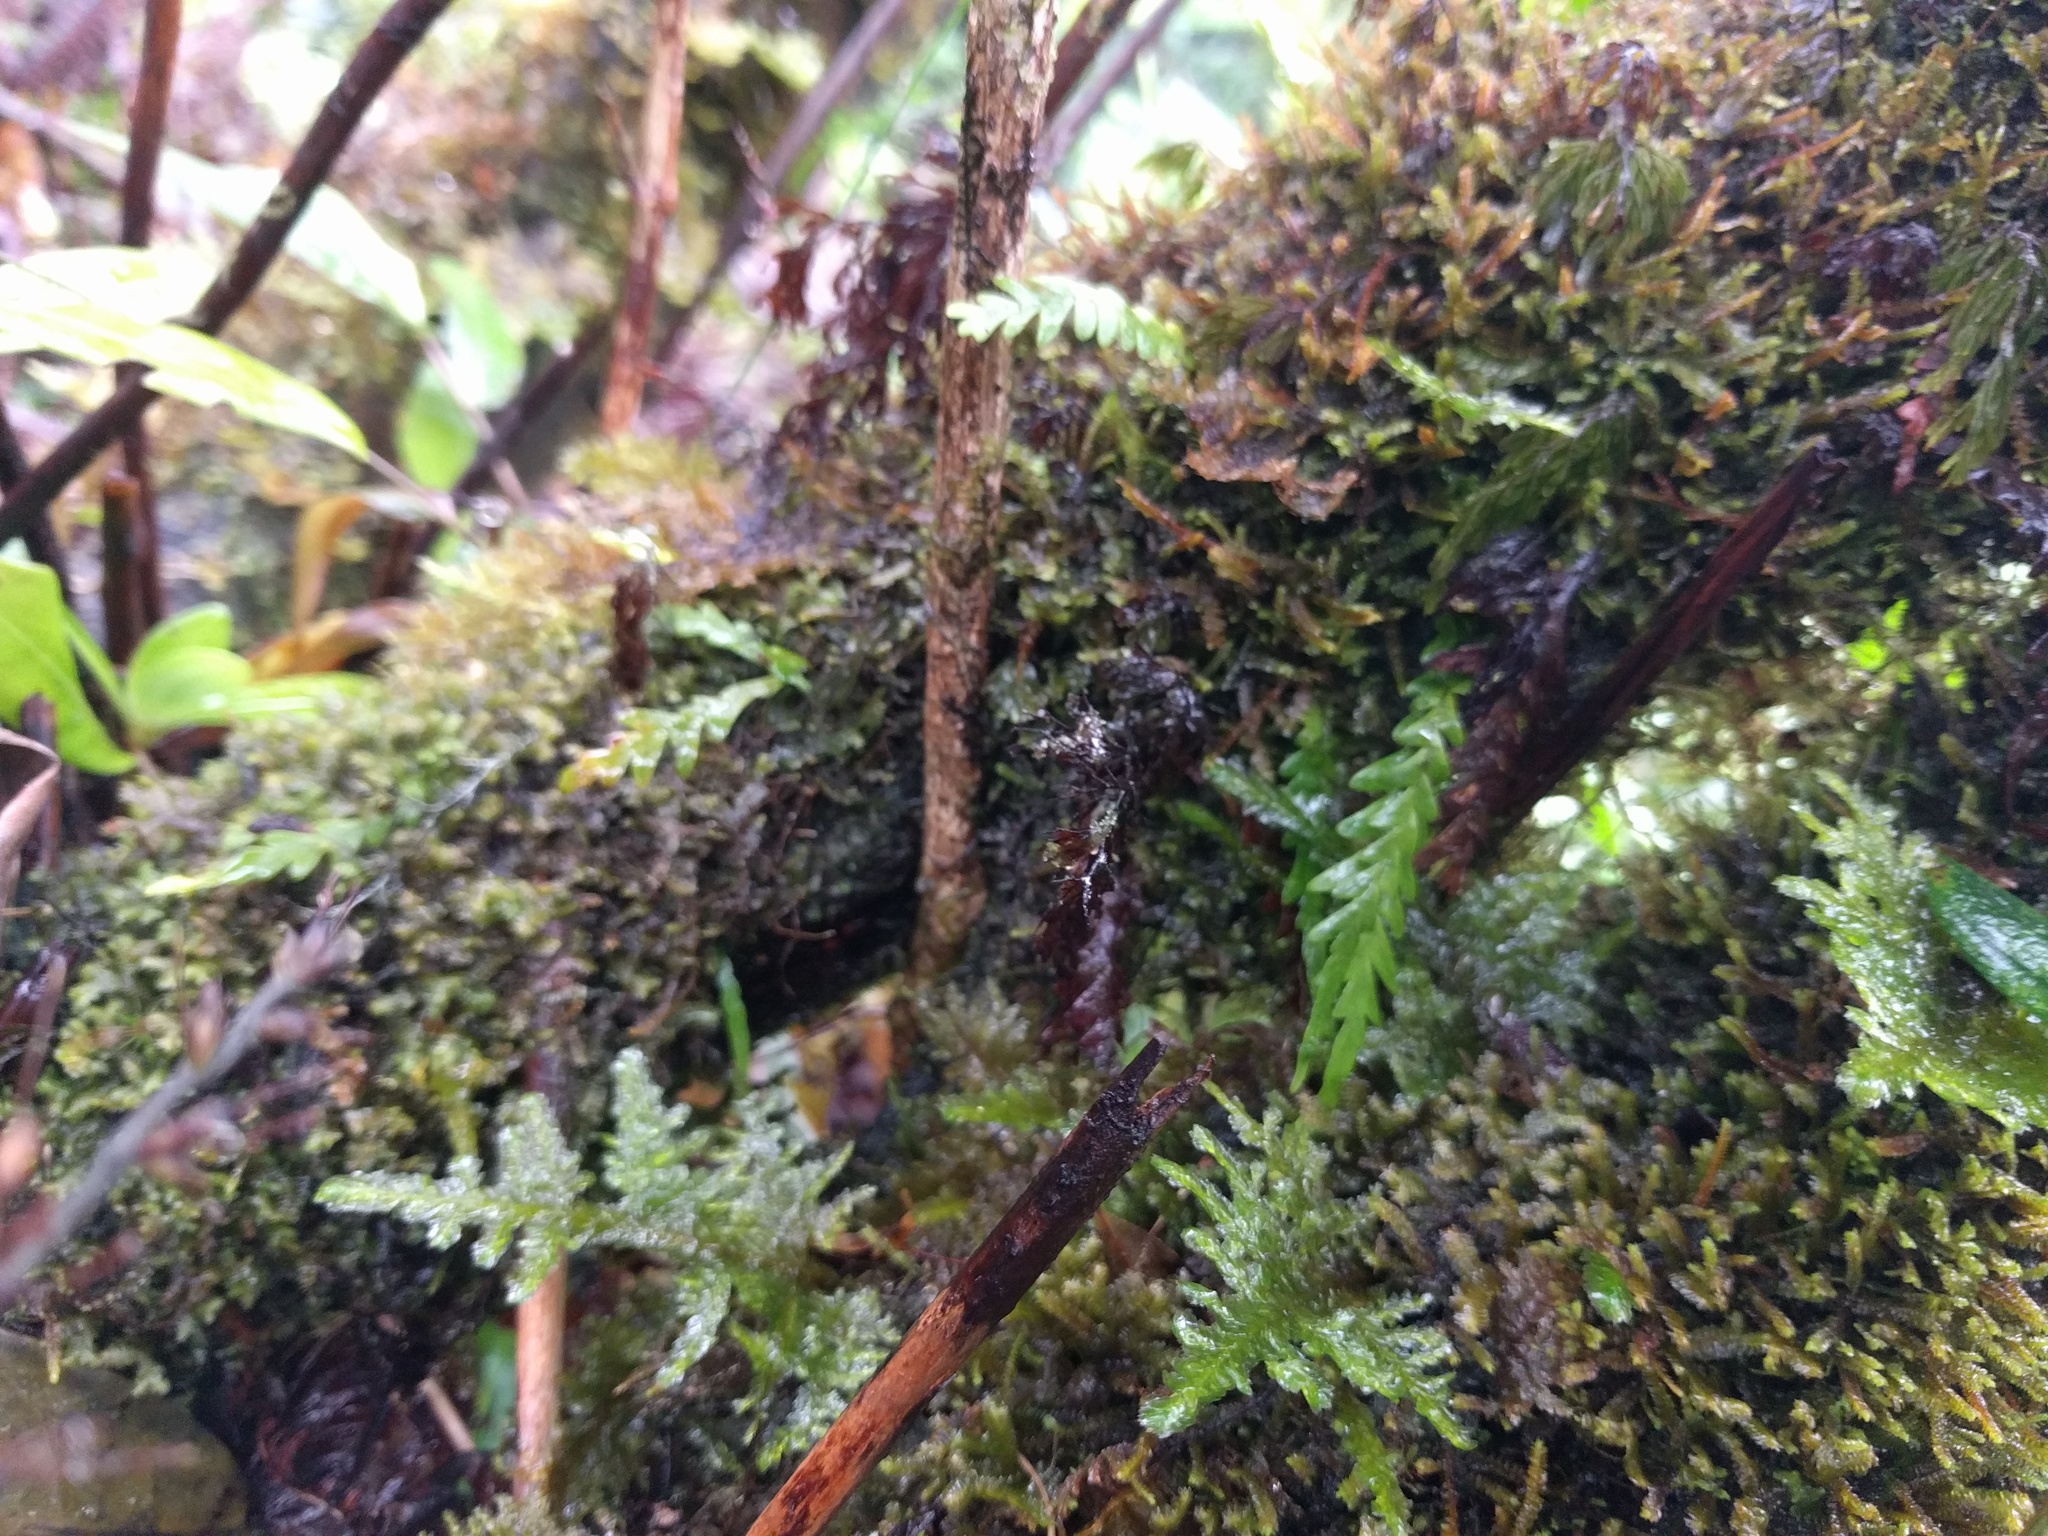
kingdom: Plantae
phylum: Tracheophyta
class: Polypodiopsida
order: Polypodiales
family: Polypodiaceae
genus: Adenophorus
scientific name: Adenophorus pinnatifidus
